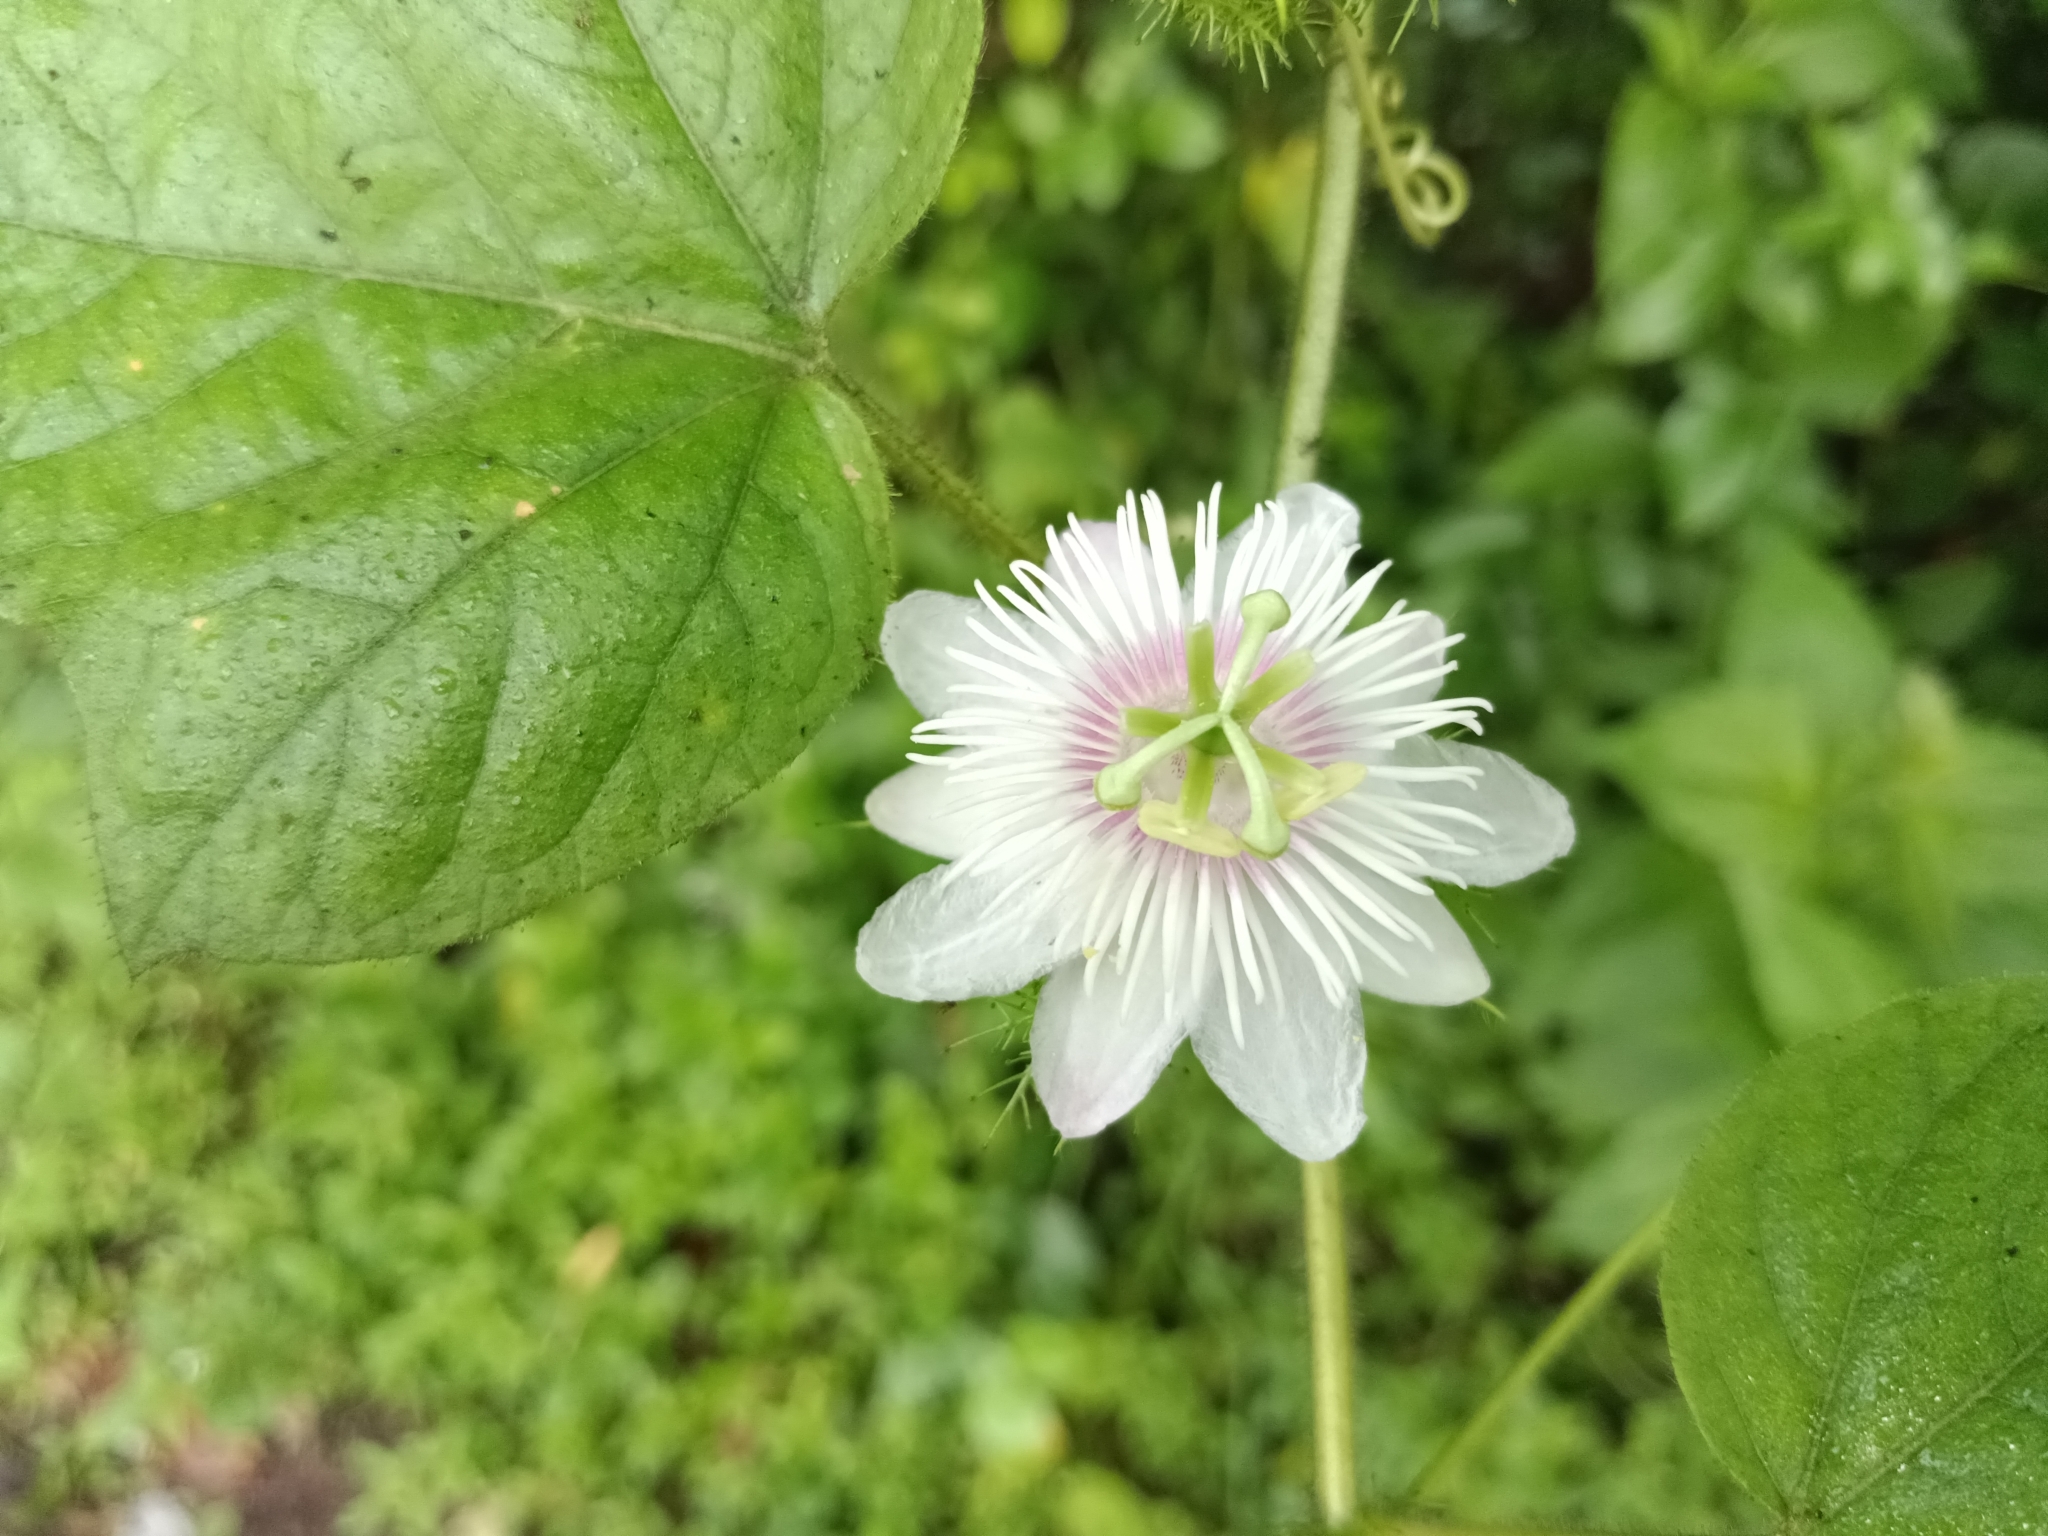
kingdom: Plantae
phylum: Tracheophyta
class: Magnoliopsida
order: Malpighiales
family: Passifloraceae
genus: Passiflora
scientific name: Passiflora vesicaria
